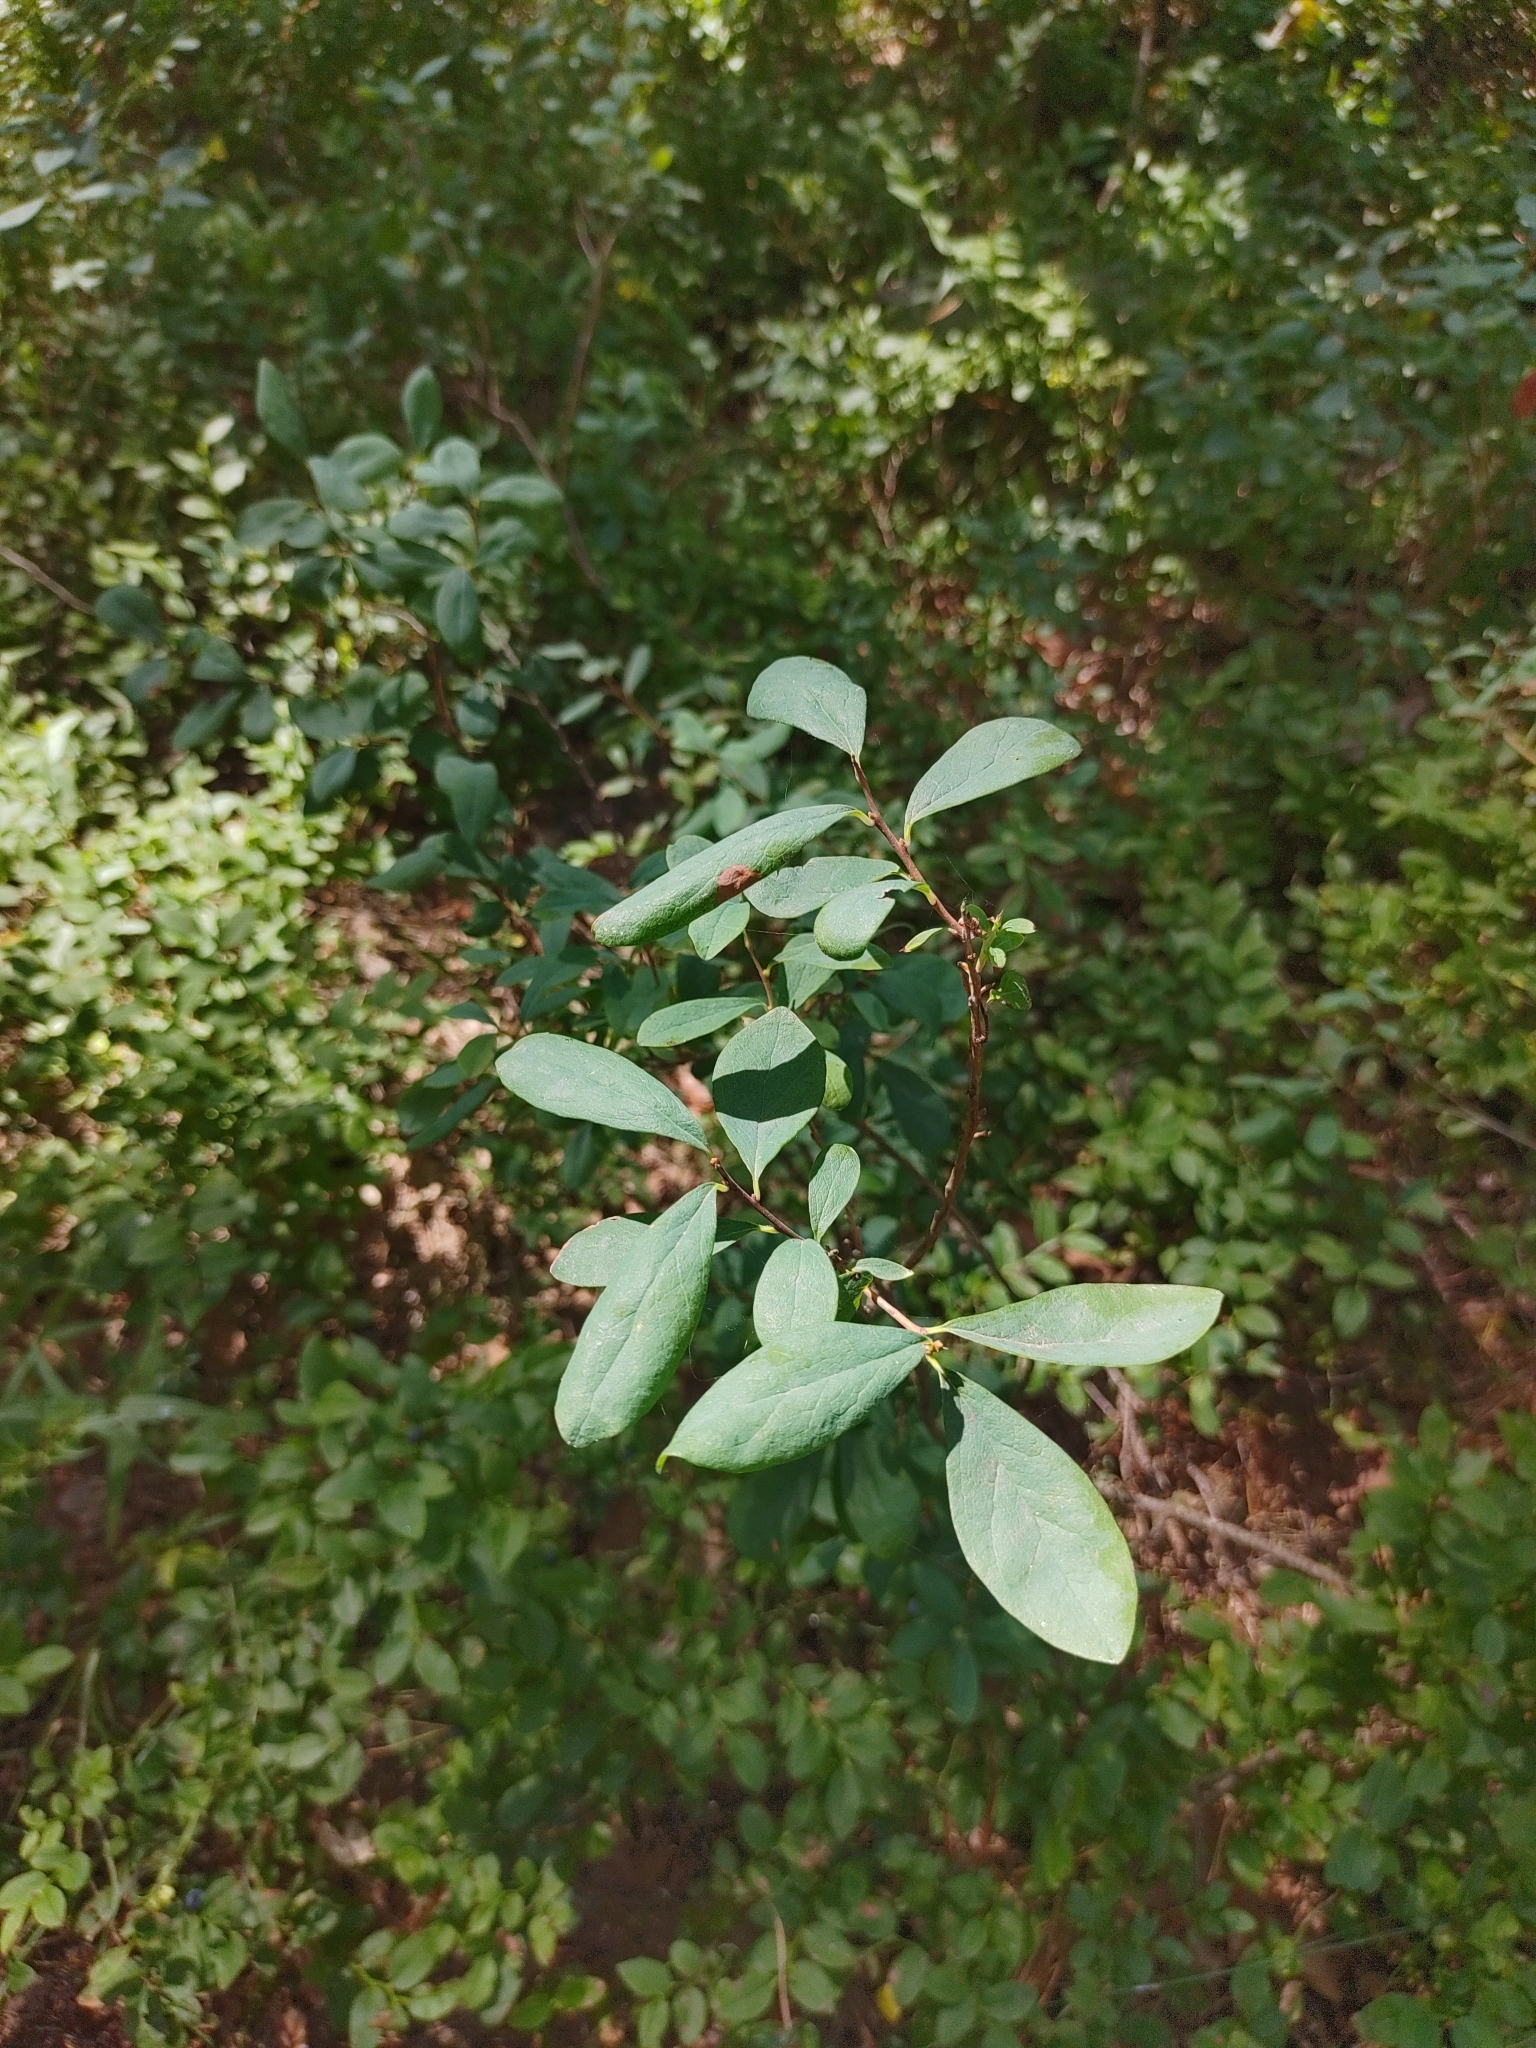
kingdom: Plantae
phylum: Tracheophyta
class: Magnoliopsida
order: Ericales
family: Ericaceae
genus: Vaccinium
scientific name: Vaccinium uliginosum
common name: Bog bilberry
